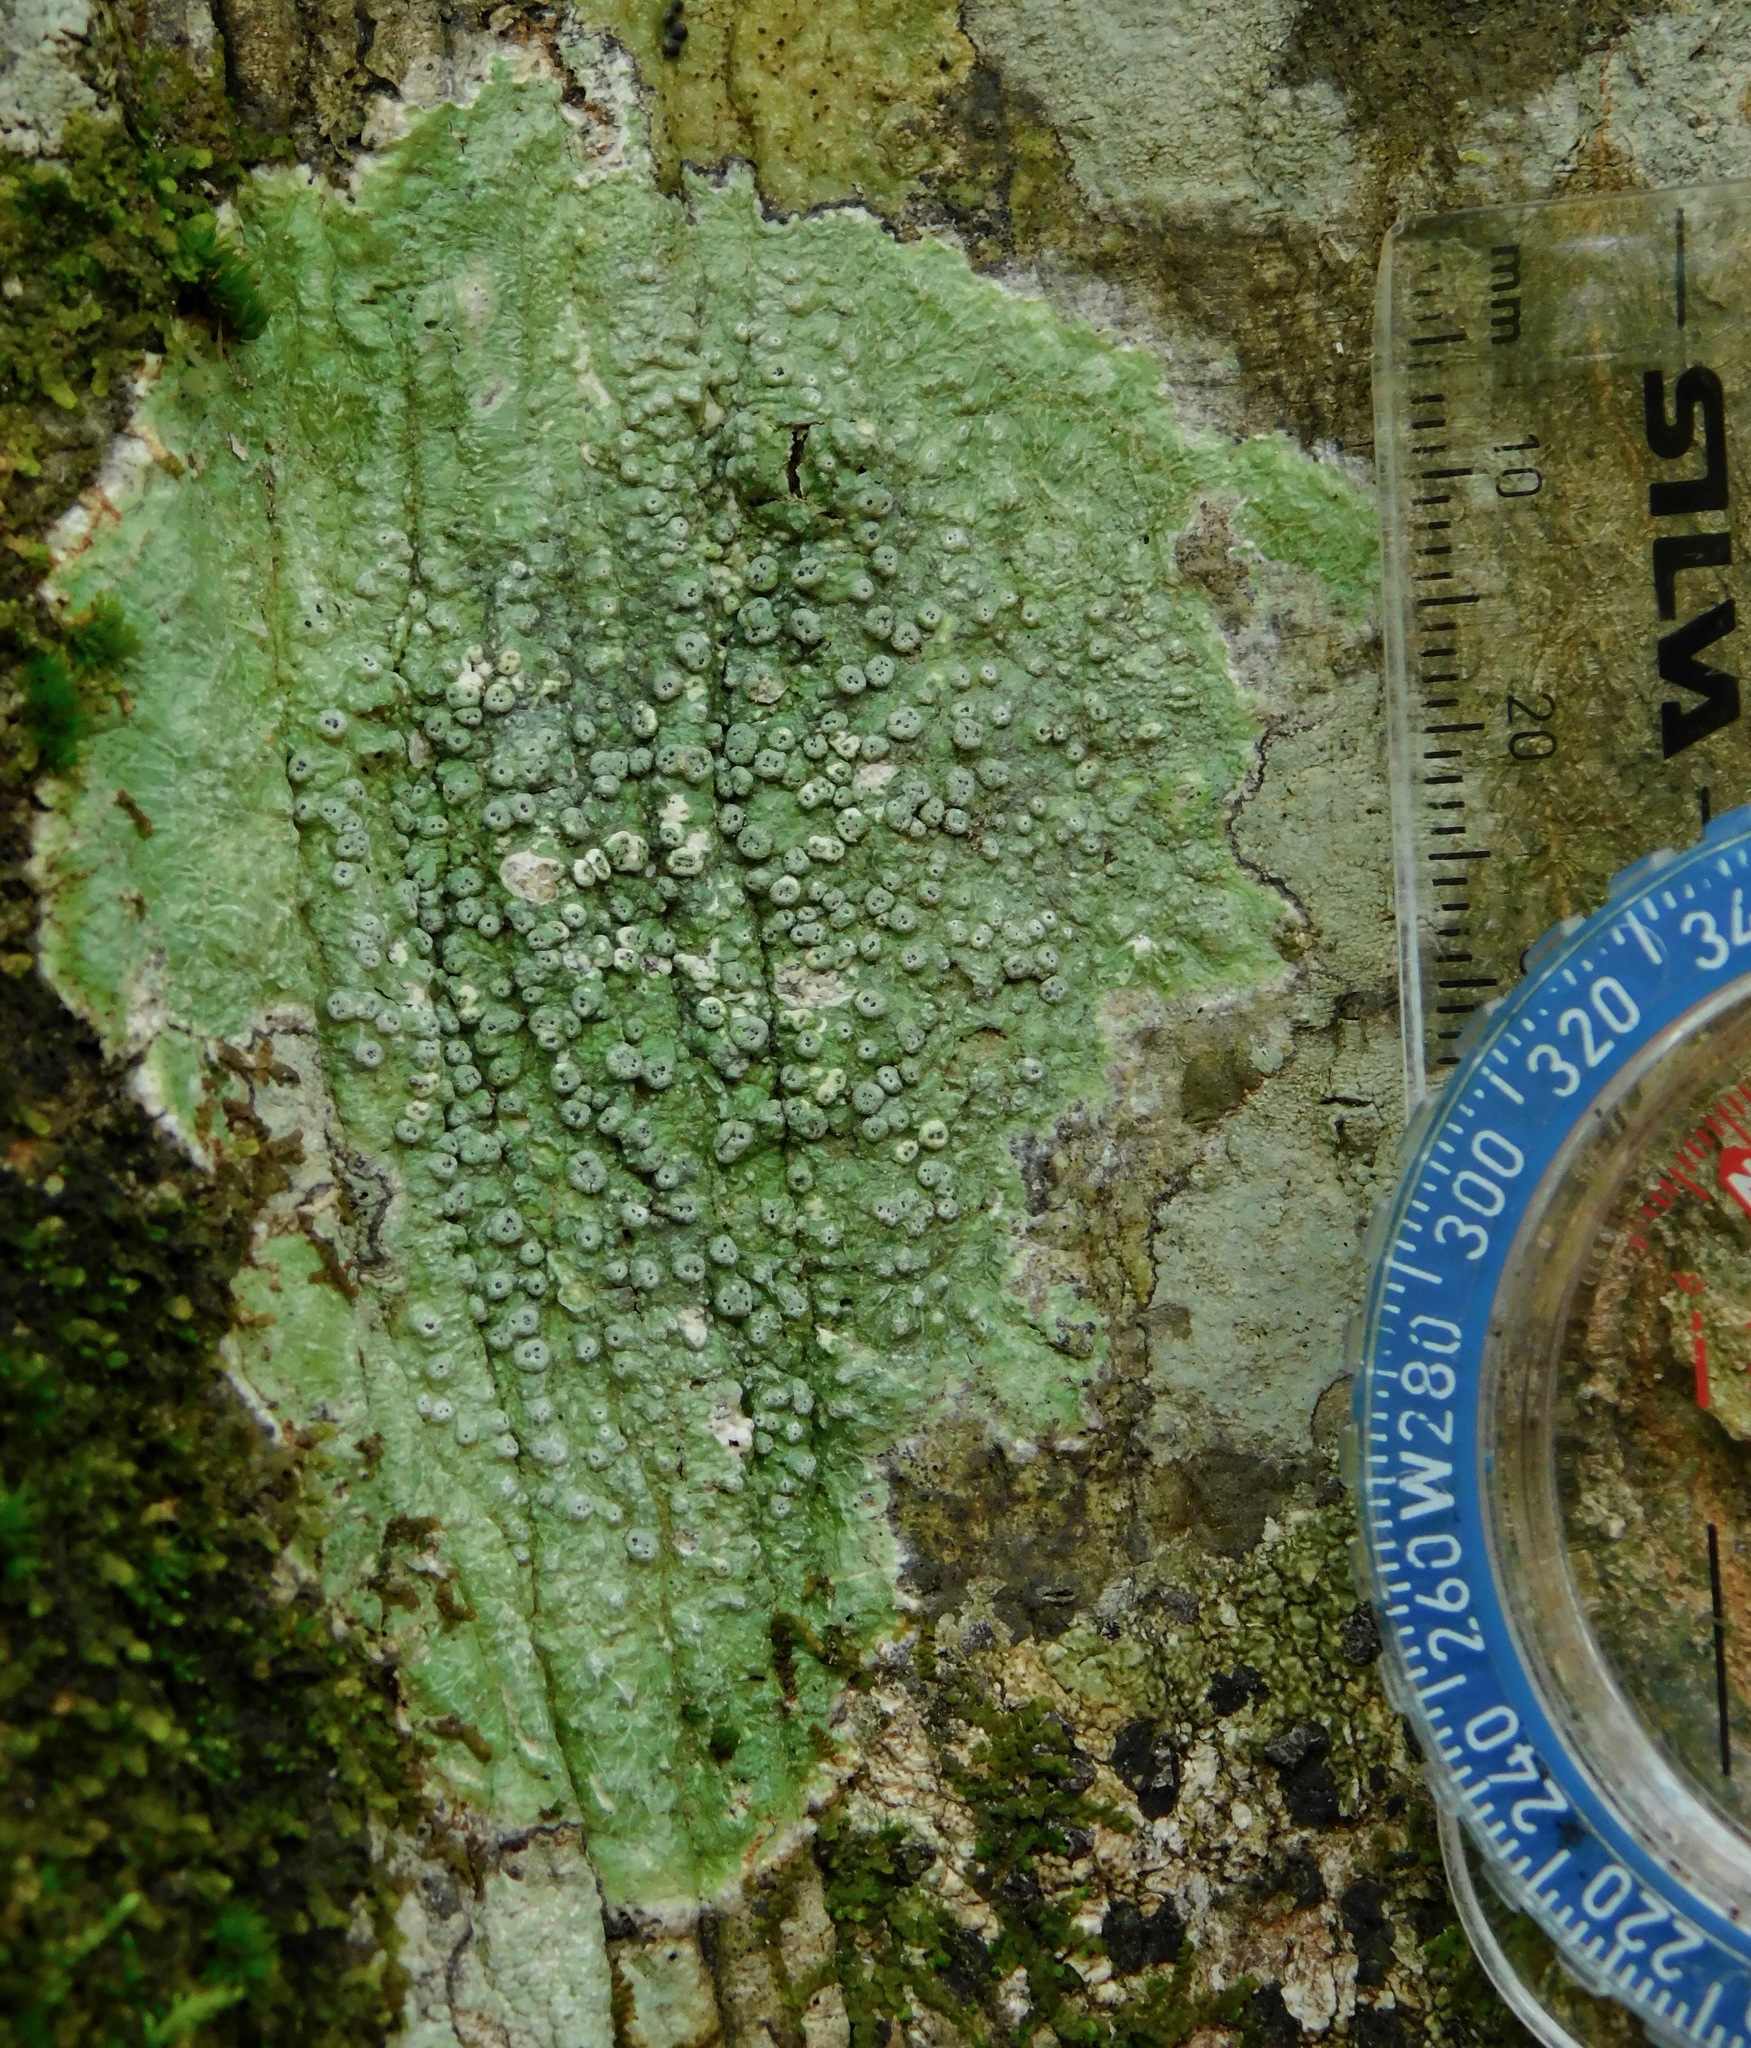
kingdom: Fungi
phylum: Ascomycota
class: Lecanoromycetes
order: Pertusariales
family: Pertusariaceae
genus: Pertusaria
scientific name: Pertusaria consocians
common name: Consociate wart lichen
